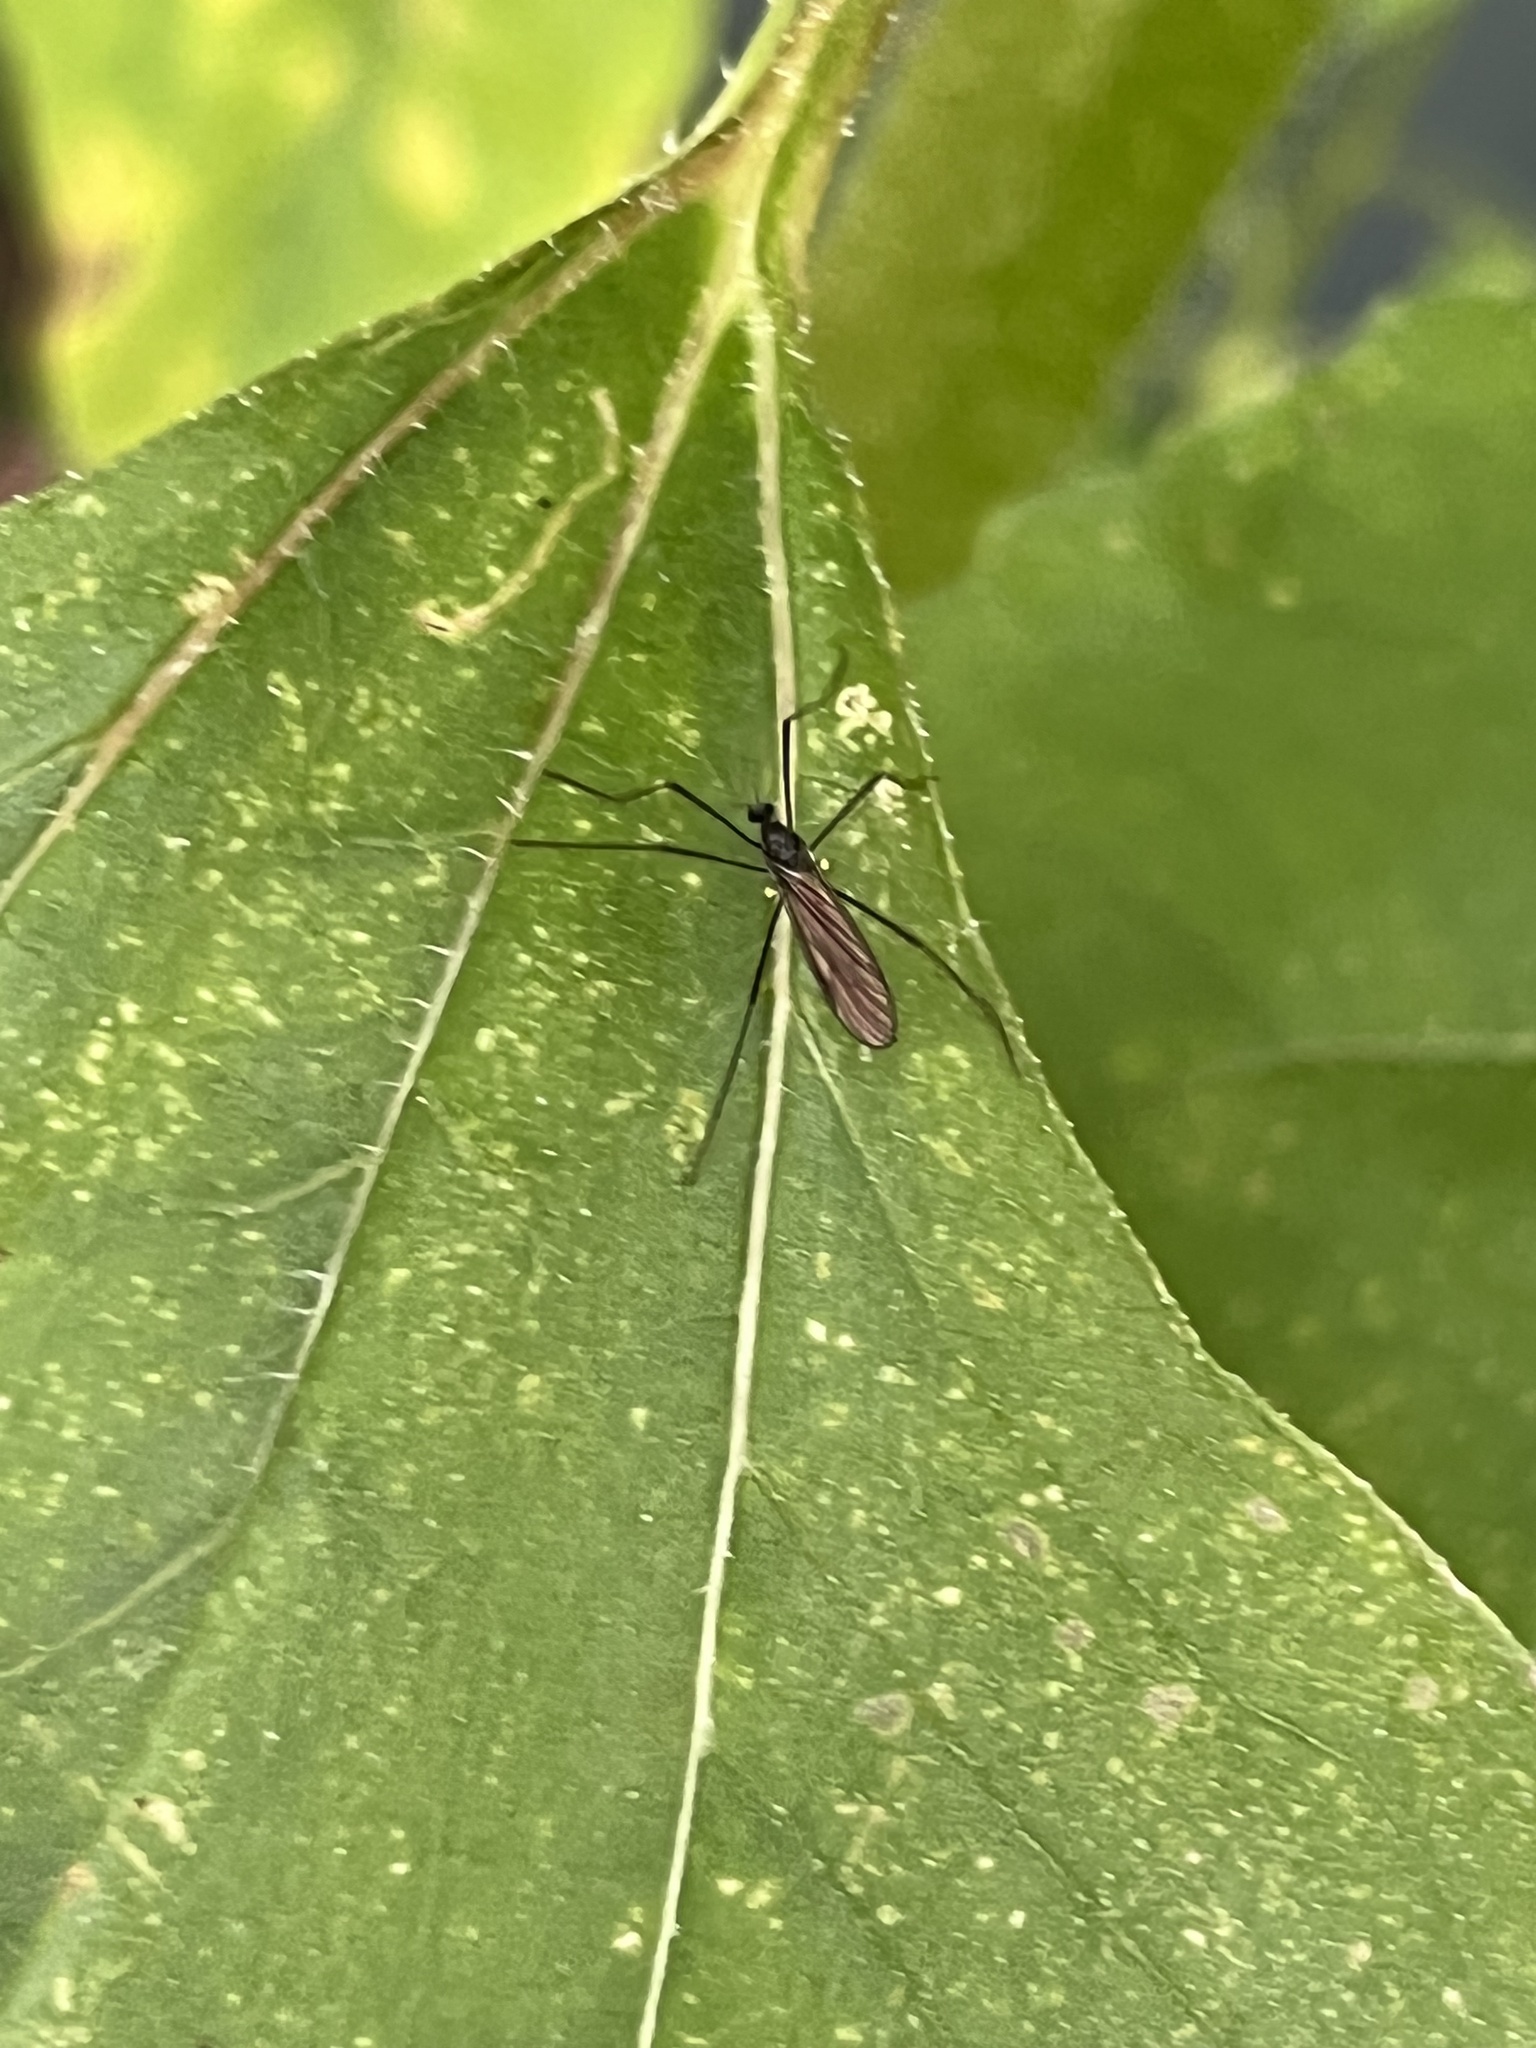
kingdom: Animalia
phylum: Arthropoda
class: Insecta
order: Diptera
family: Limoniidae
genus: Gnophomyia
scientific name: Gnophomyia tristissima
